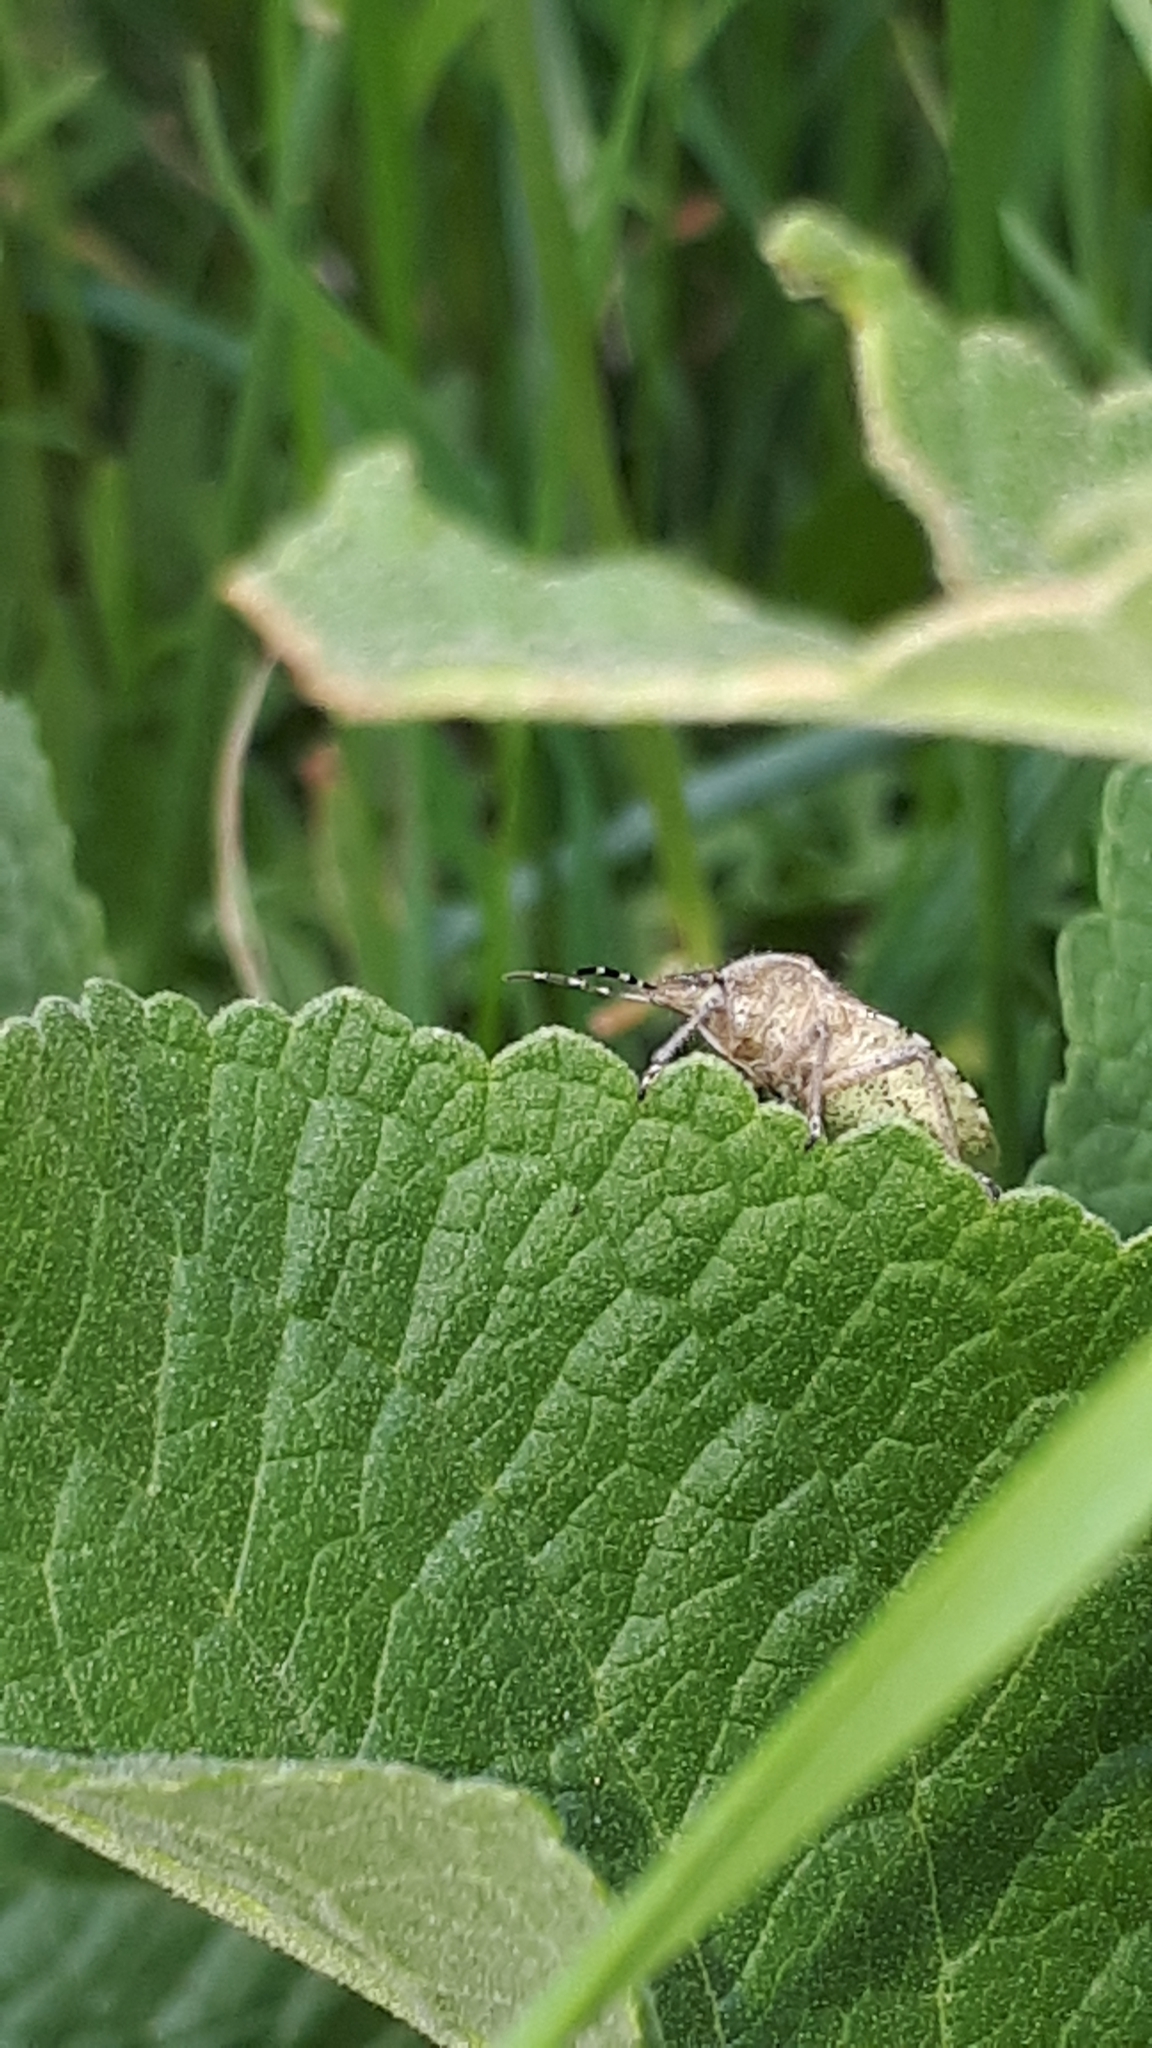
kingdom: Animalia
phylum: Arthropoda
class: Insecta
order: Hemiptera
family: Pentatomidae
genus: Dolycoris
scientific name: Dolycoris baccarum
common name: Sloe bug
